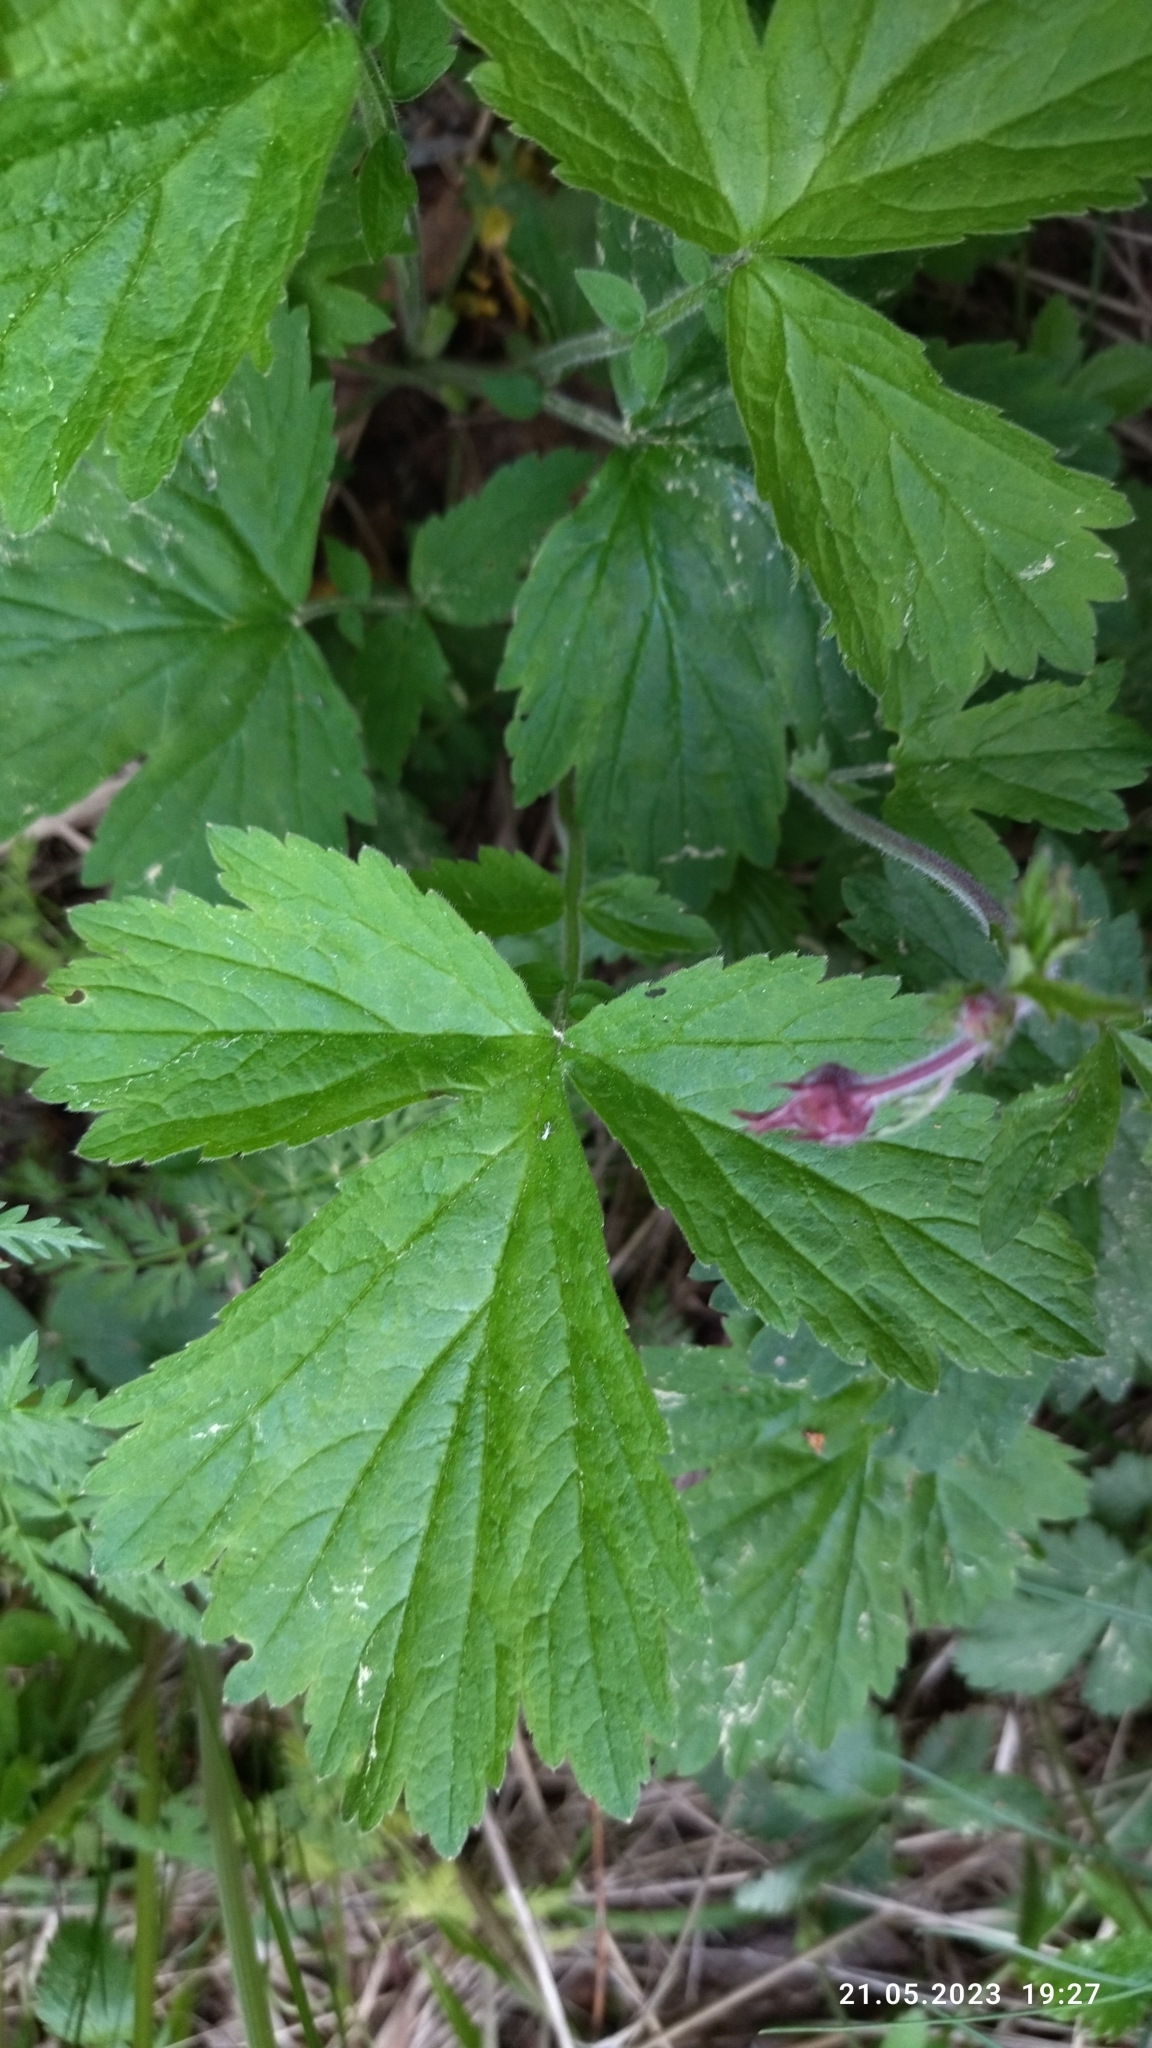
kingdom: Plantae
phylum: Tracheophyta
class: Magnoliopsida
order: Rosales
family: Rosaceae
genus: Geum
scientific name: Geum rivale
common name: Water avens
